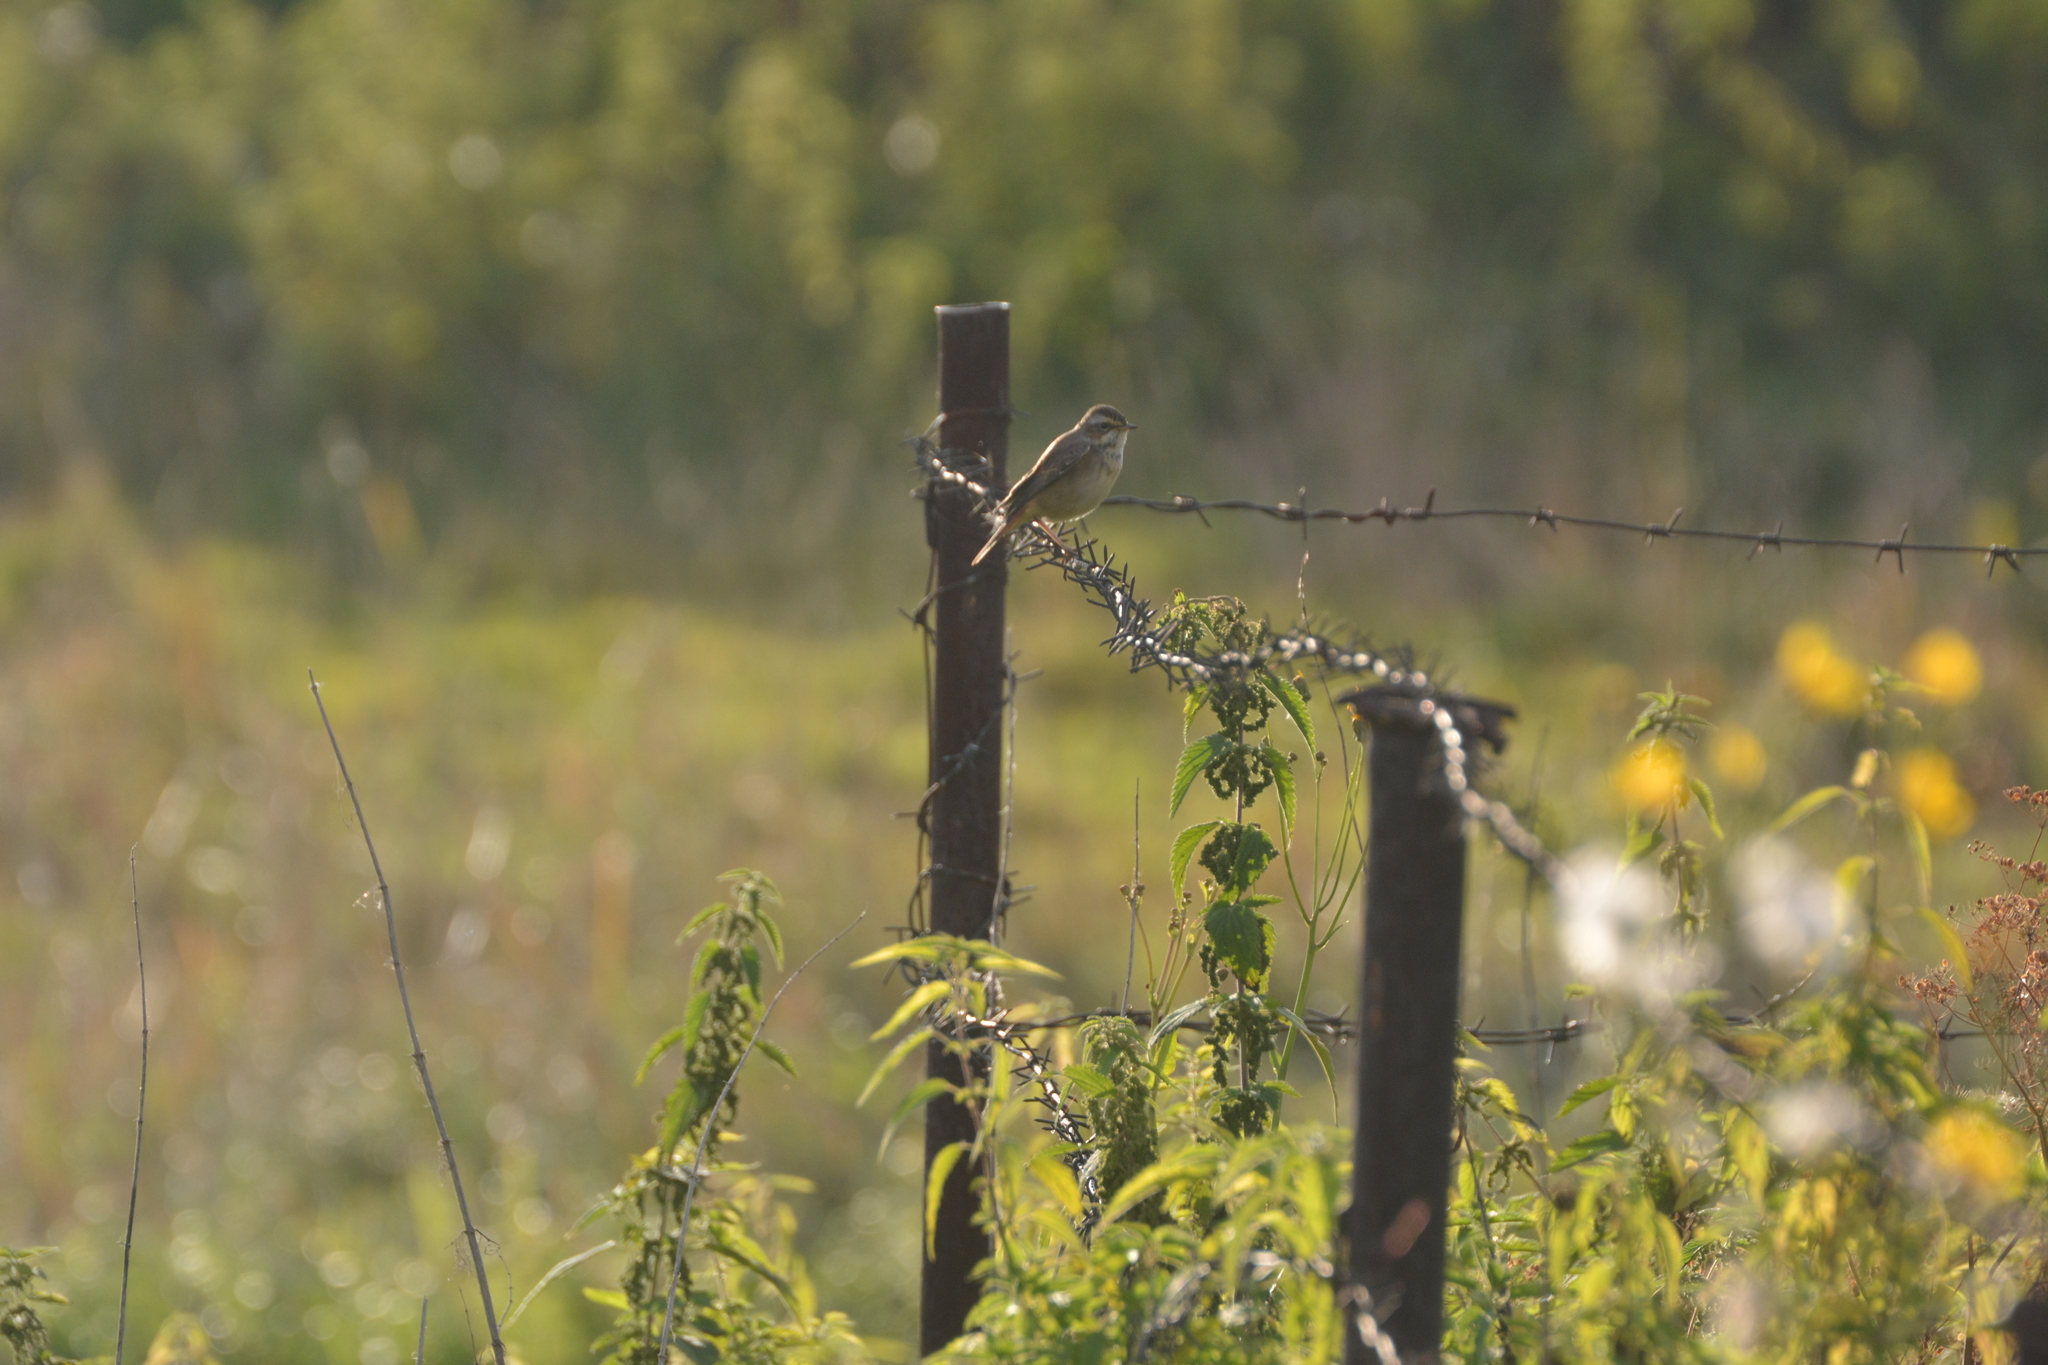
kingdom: Animalia
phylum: Chordata
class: Aves
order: Passeriformes
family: Muscicapidae
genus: Luscinia
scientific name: Luscinia svecica
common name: Bluethroat
